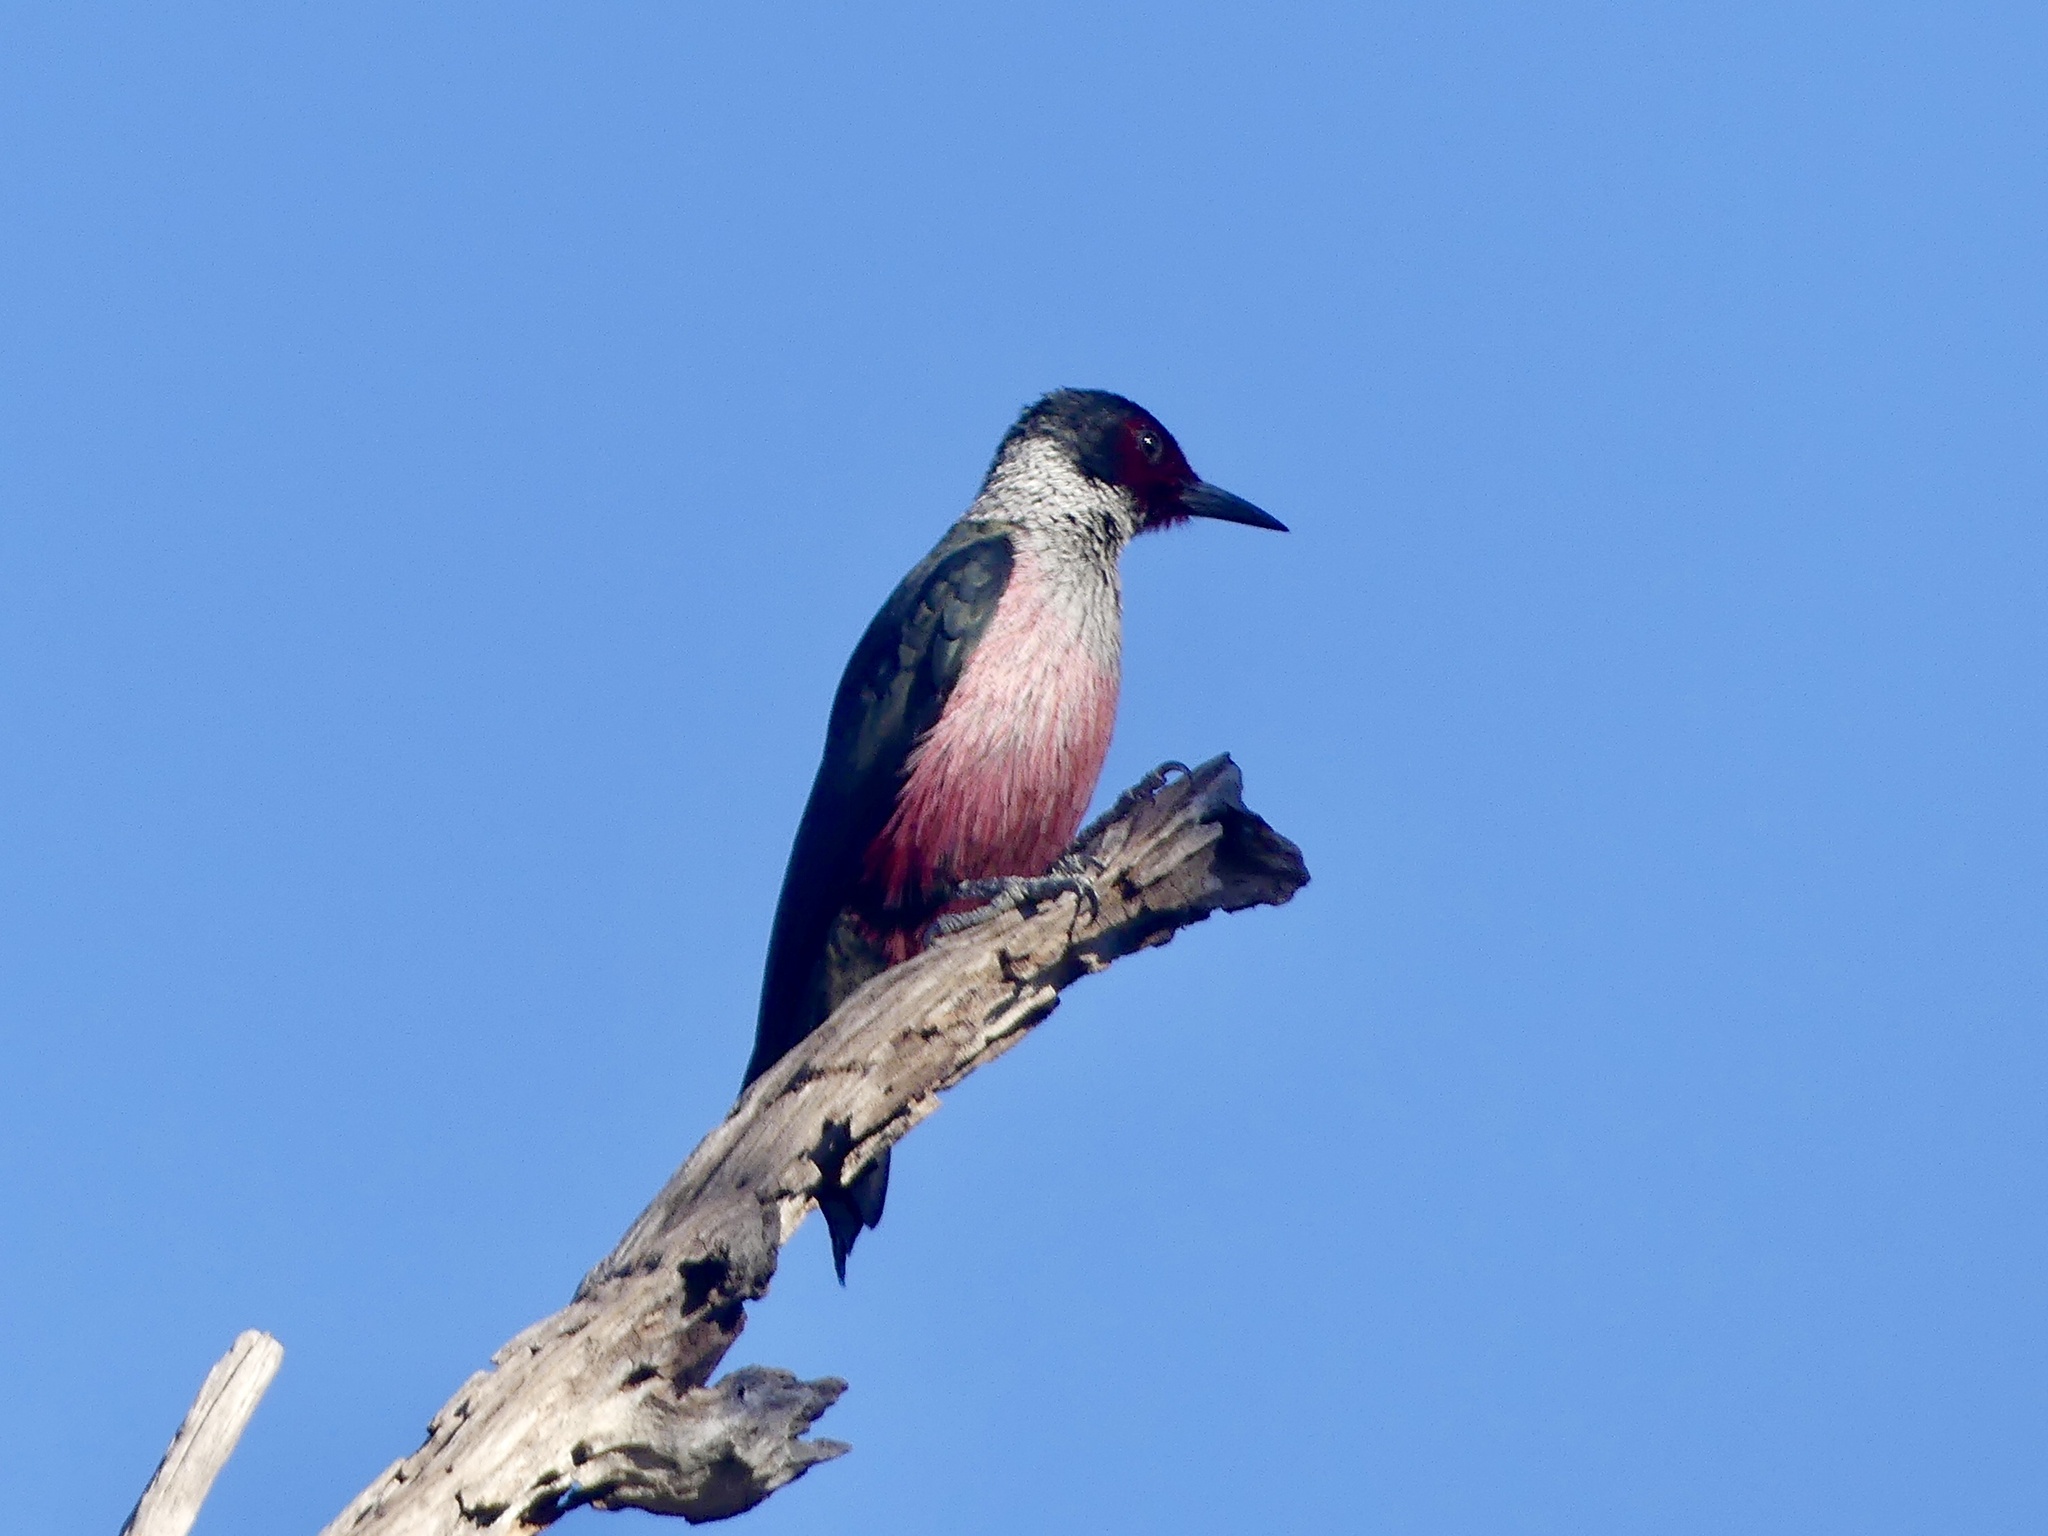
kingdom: Animalia
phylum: Chordata
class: Aves
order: Piciformes
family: Picidae
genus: Melanerpes
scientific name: Melanerpes lewis
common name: Lewis's woodpecker
